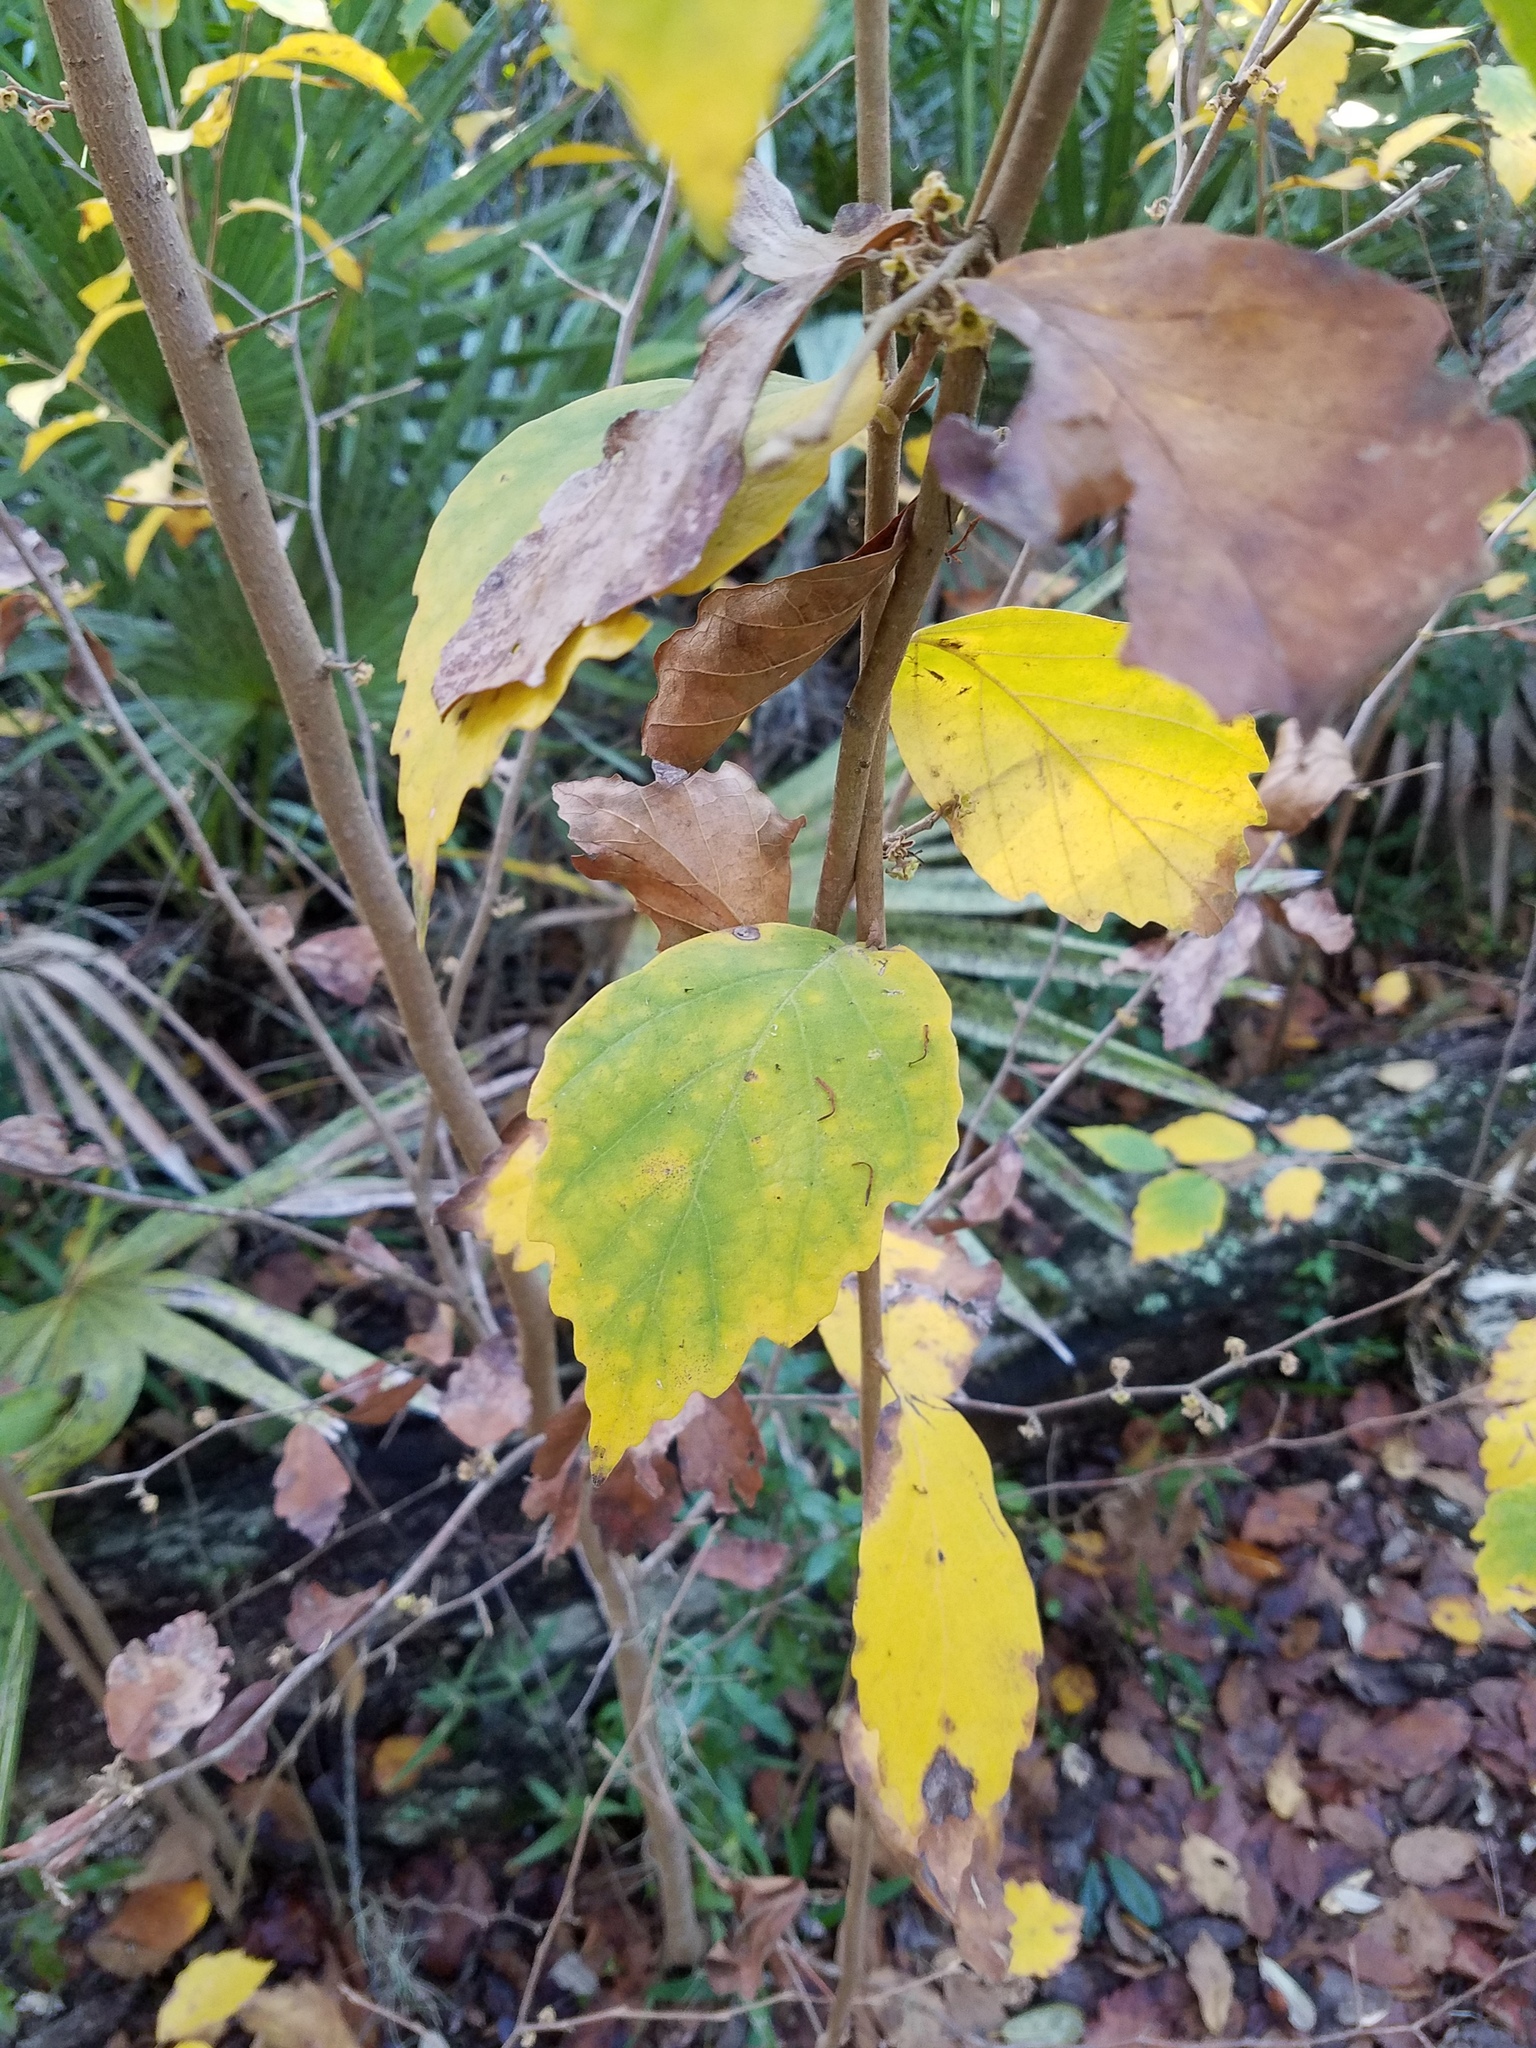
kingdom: Plantae
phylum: Tracheophyta
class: Magnoliopsida
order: Saxifragales
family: Hamamelidaceae
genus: Hamamelis
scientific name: Hamamelis virginiana
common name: Witch-hazel
